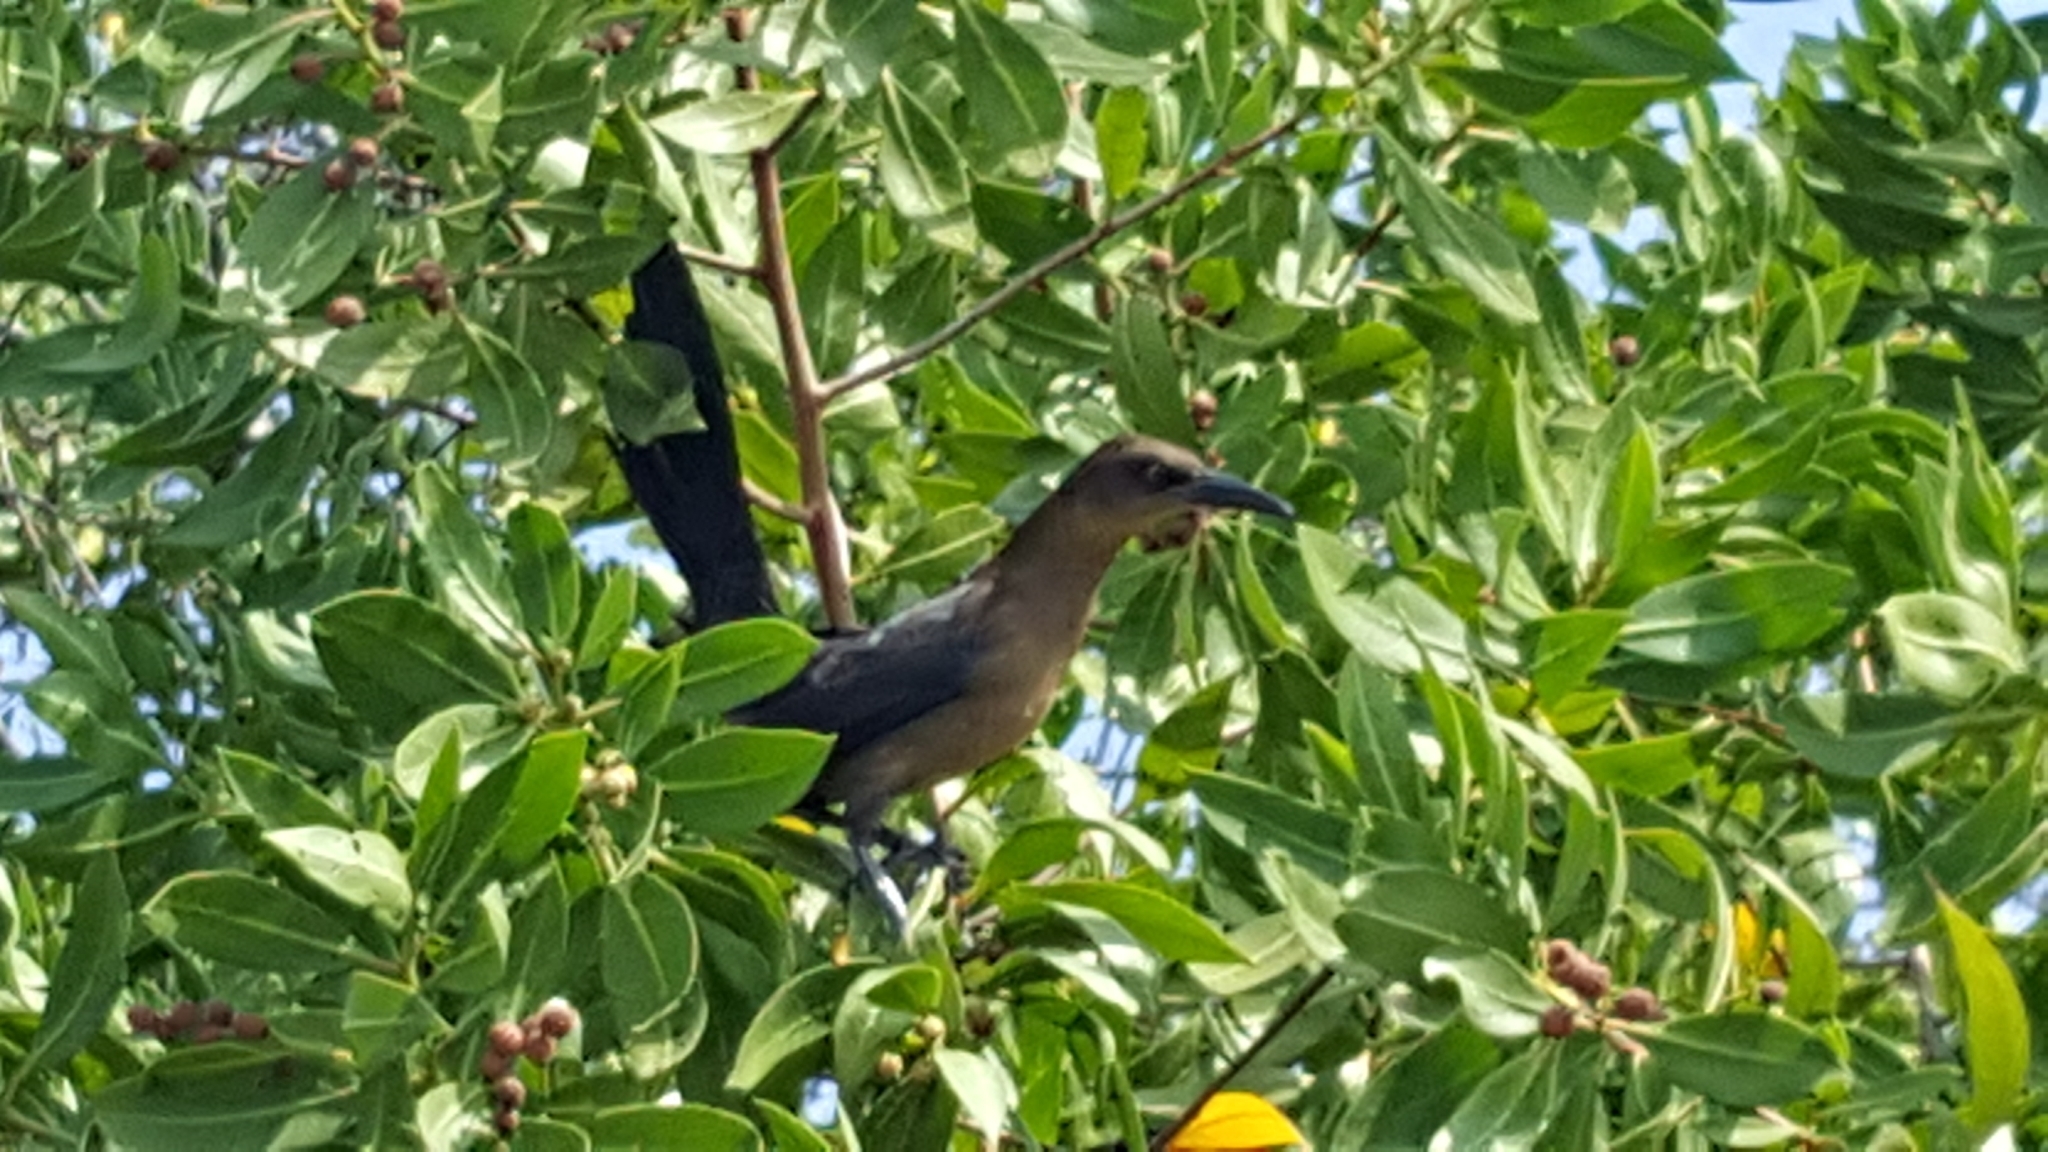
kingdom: Animalia
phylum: Chordata
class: Aves
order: Passeriformes
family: Icteridae
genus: Quiscalus
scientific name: Quiscalus mexicanus
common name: Great-tailed grackle
